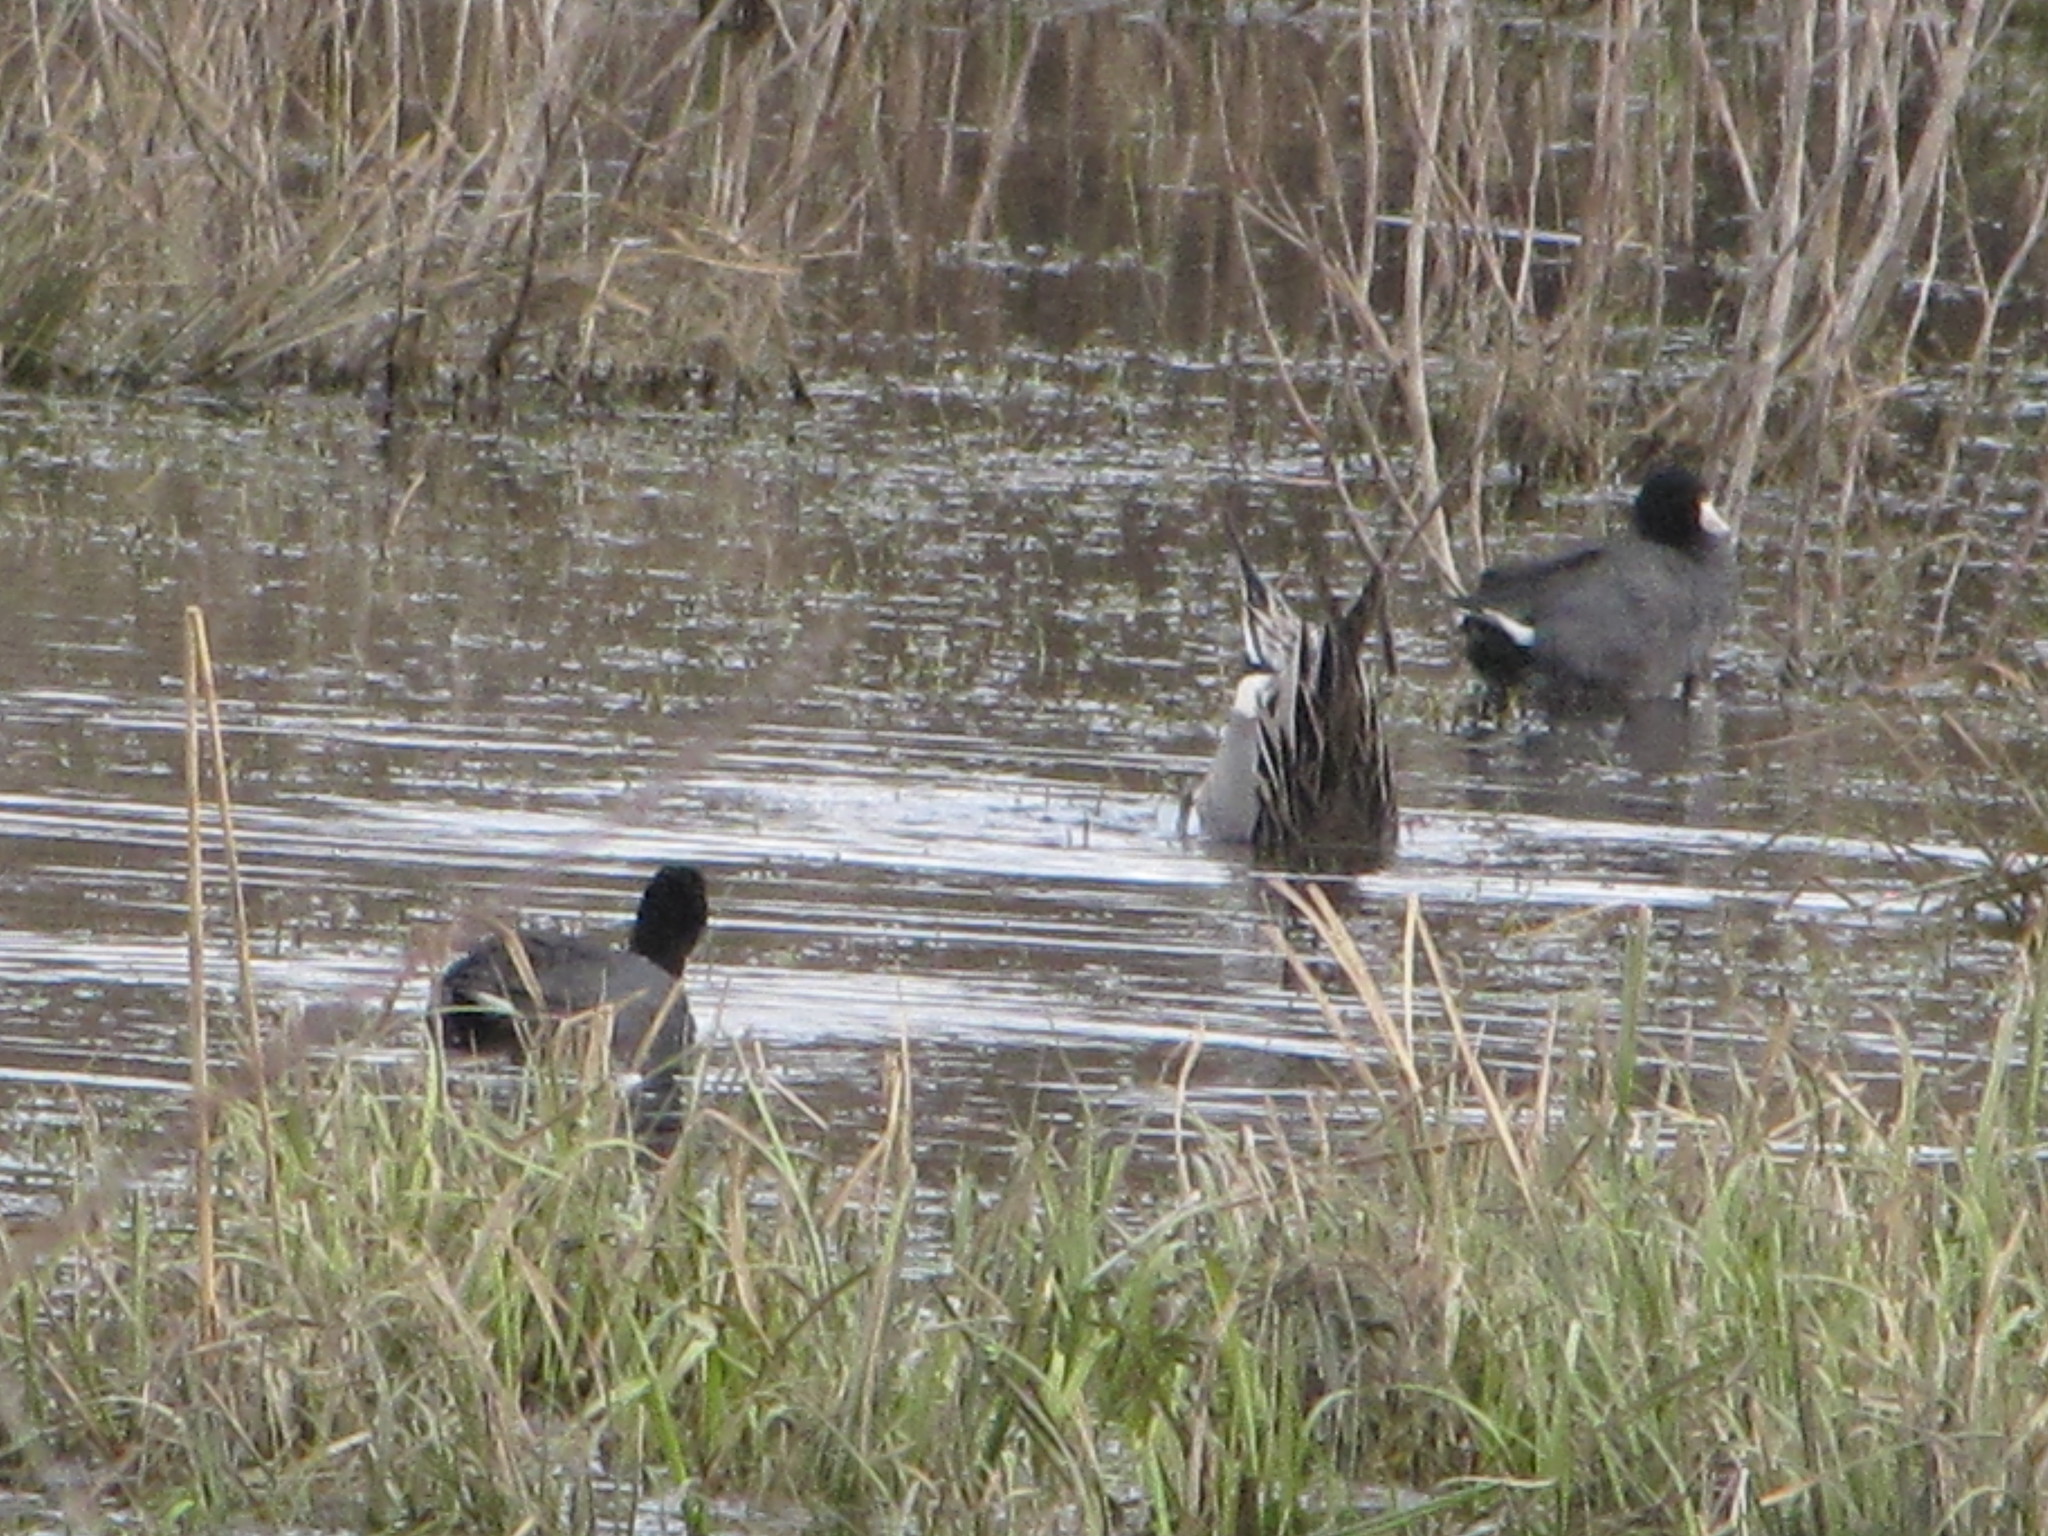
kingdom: Animalia
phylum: Chordata
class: Aves
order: Gruiformes
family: Rallidae
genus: Fulica
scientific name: Fulica americana
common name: American coot
